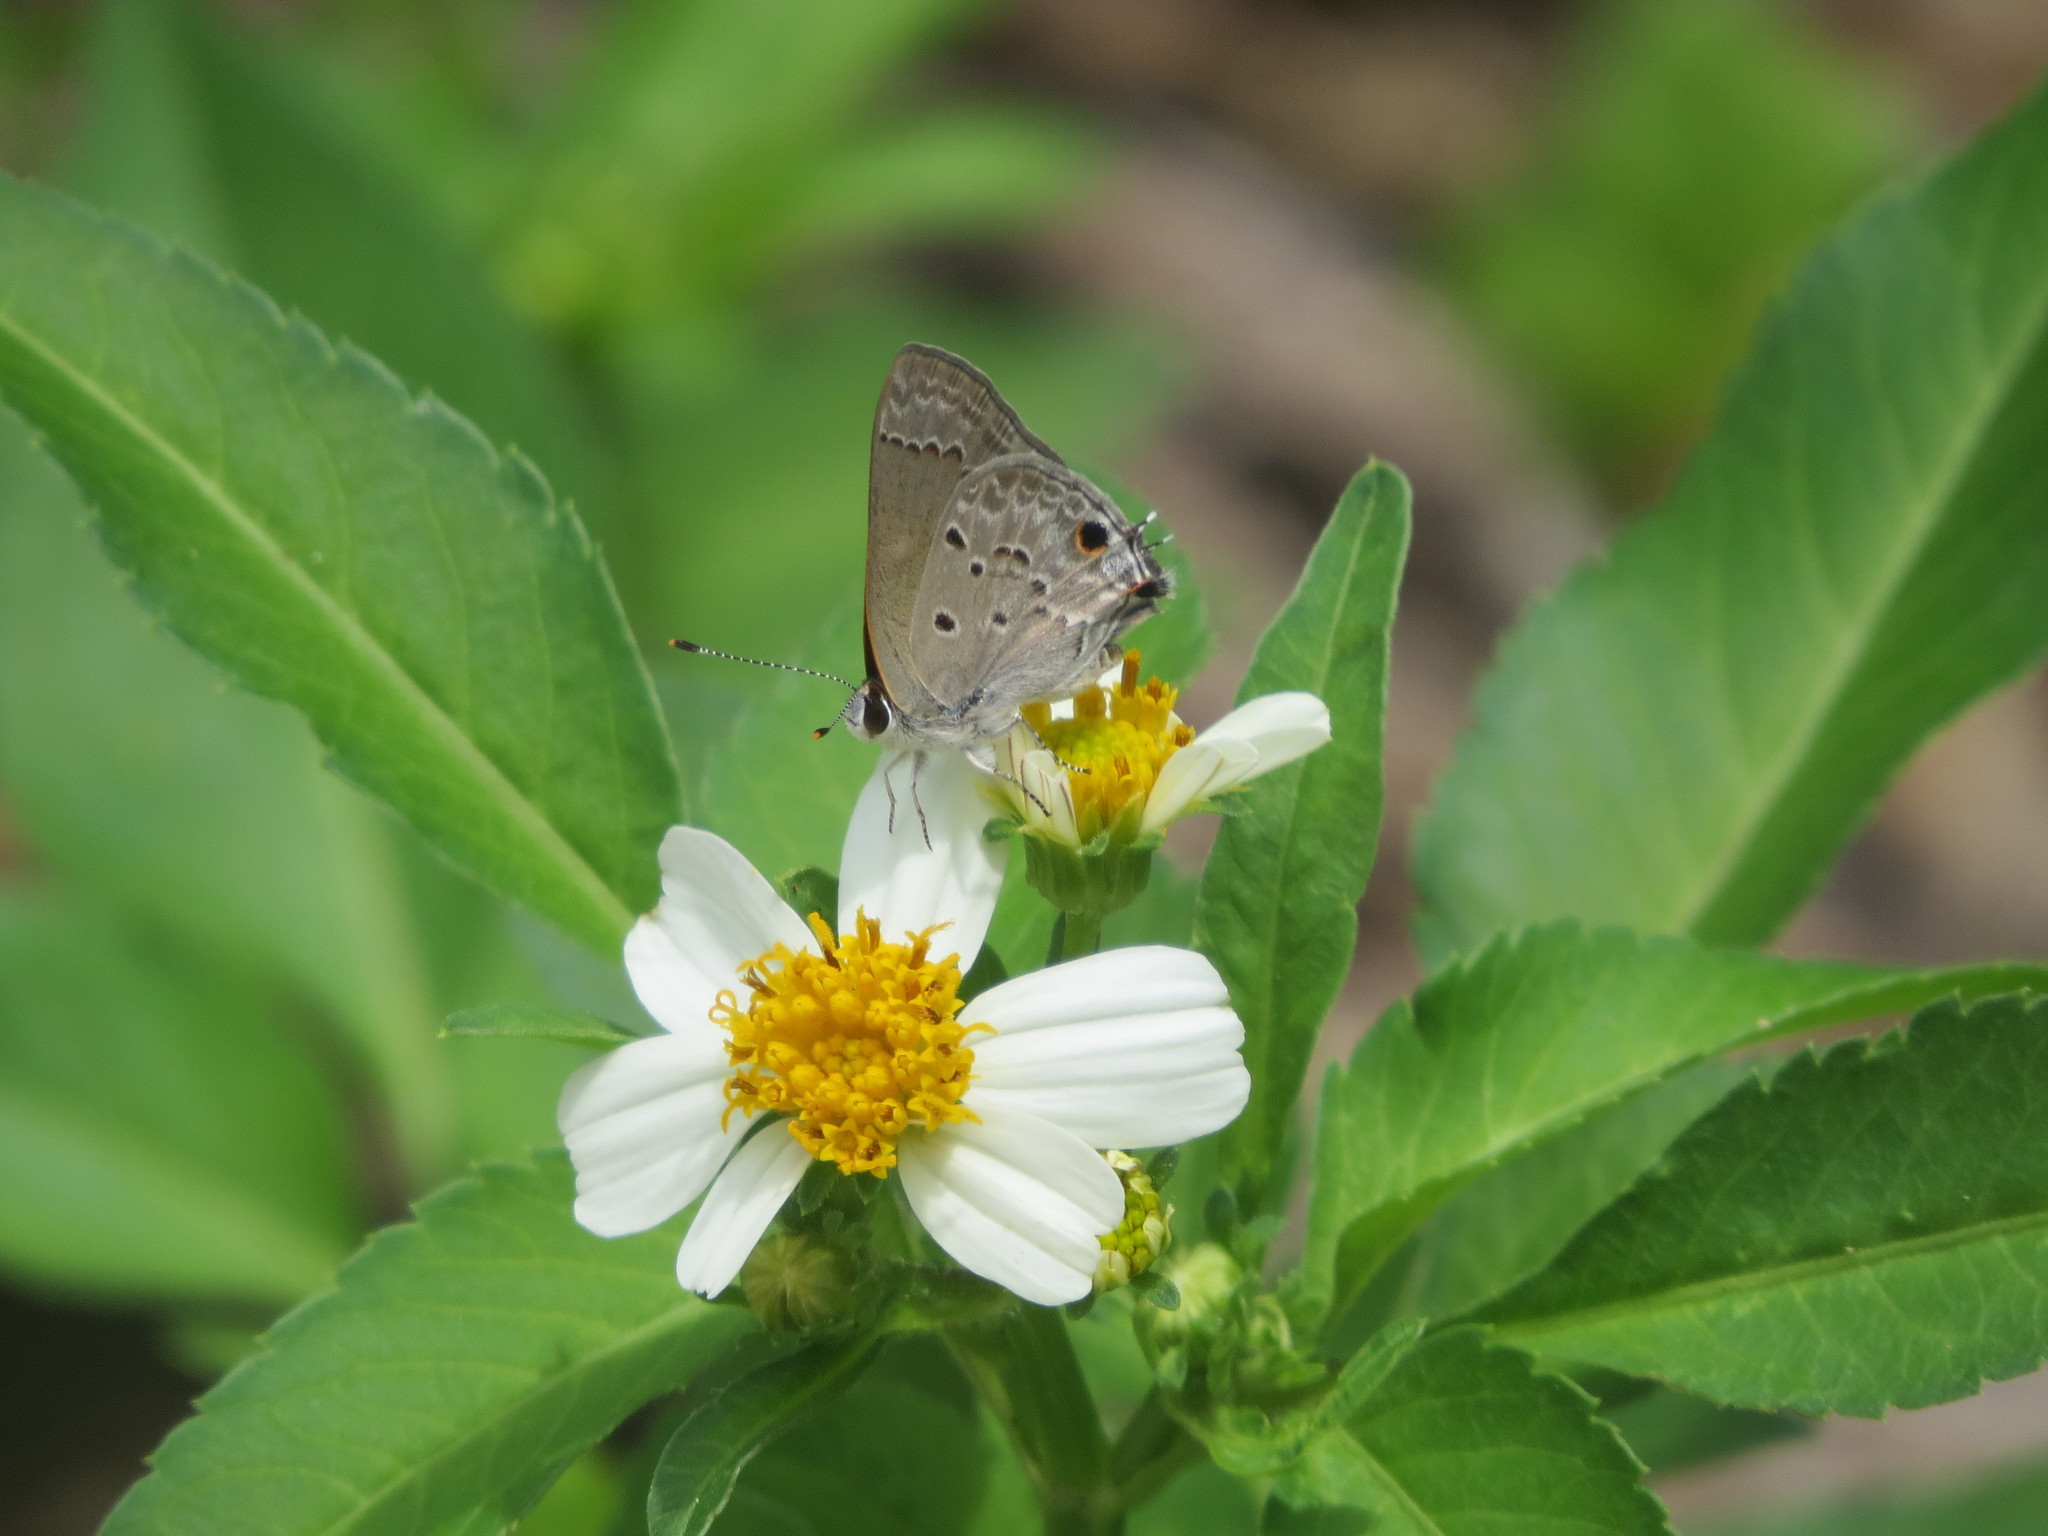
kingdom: Animalia
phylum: Arthropoda
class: Insecta
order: Lepidoptera
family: Lycaenidae
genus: Callicista
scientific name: Callicista columella
